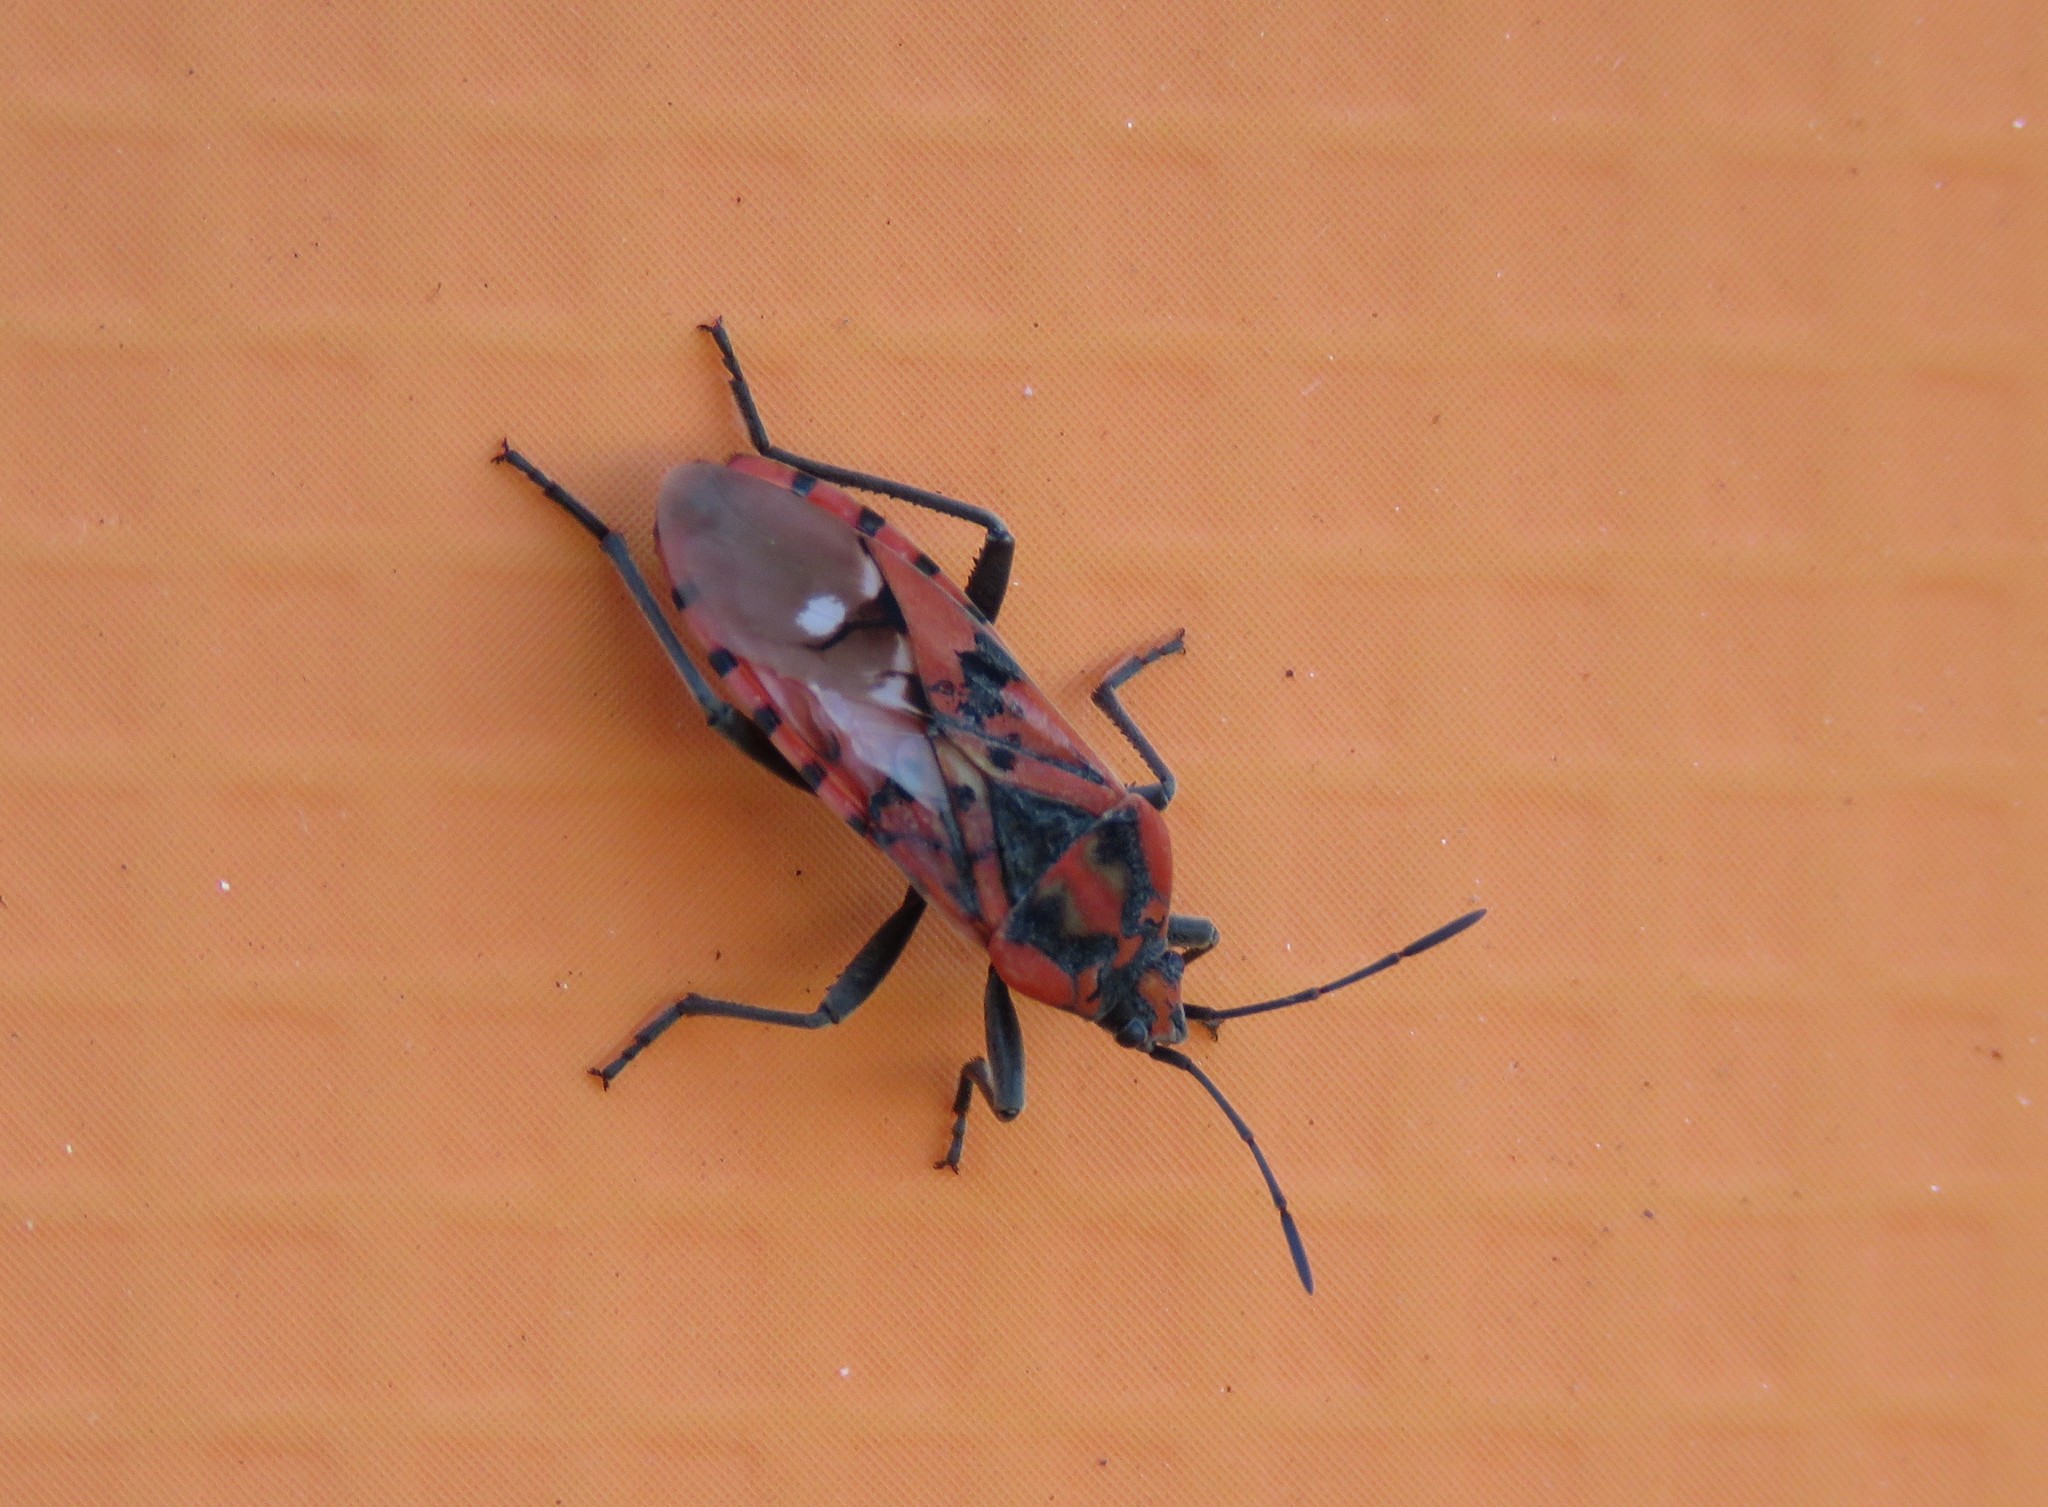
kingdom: Animalia
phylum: Arthropoda
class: Insecta
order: Hemiptera
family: Lygaeidae
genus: Spilostethus
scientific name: Spilostethus pandurus
